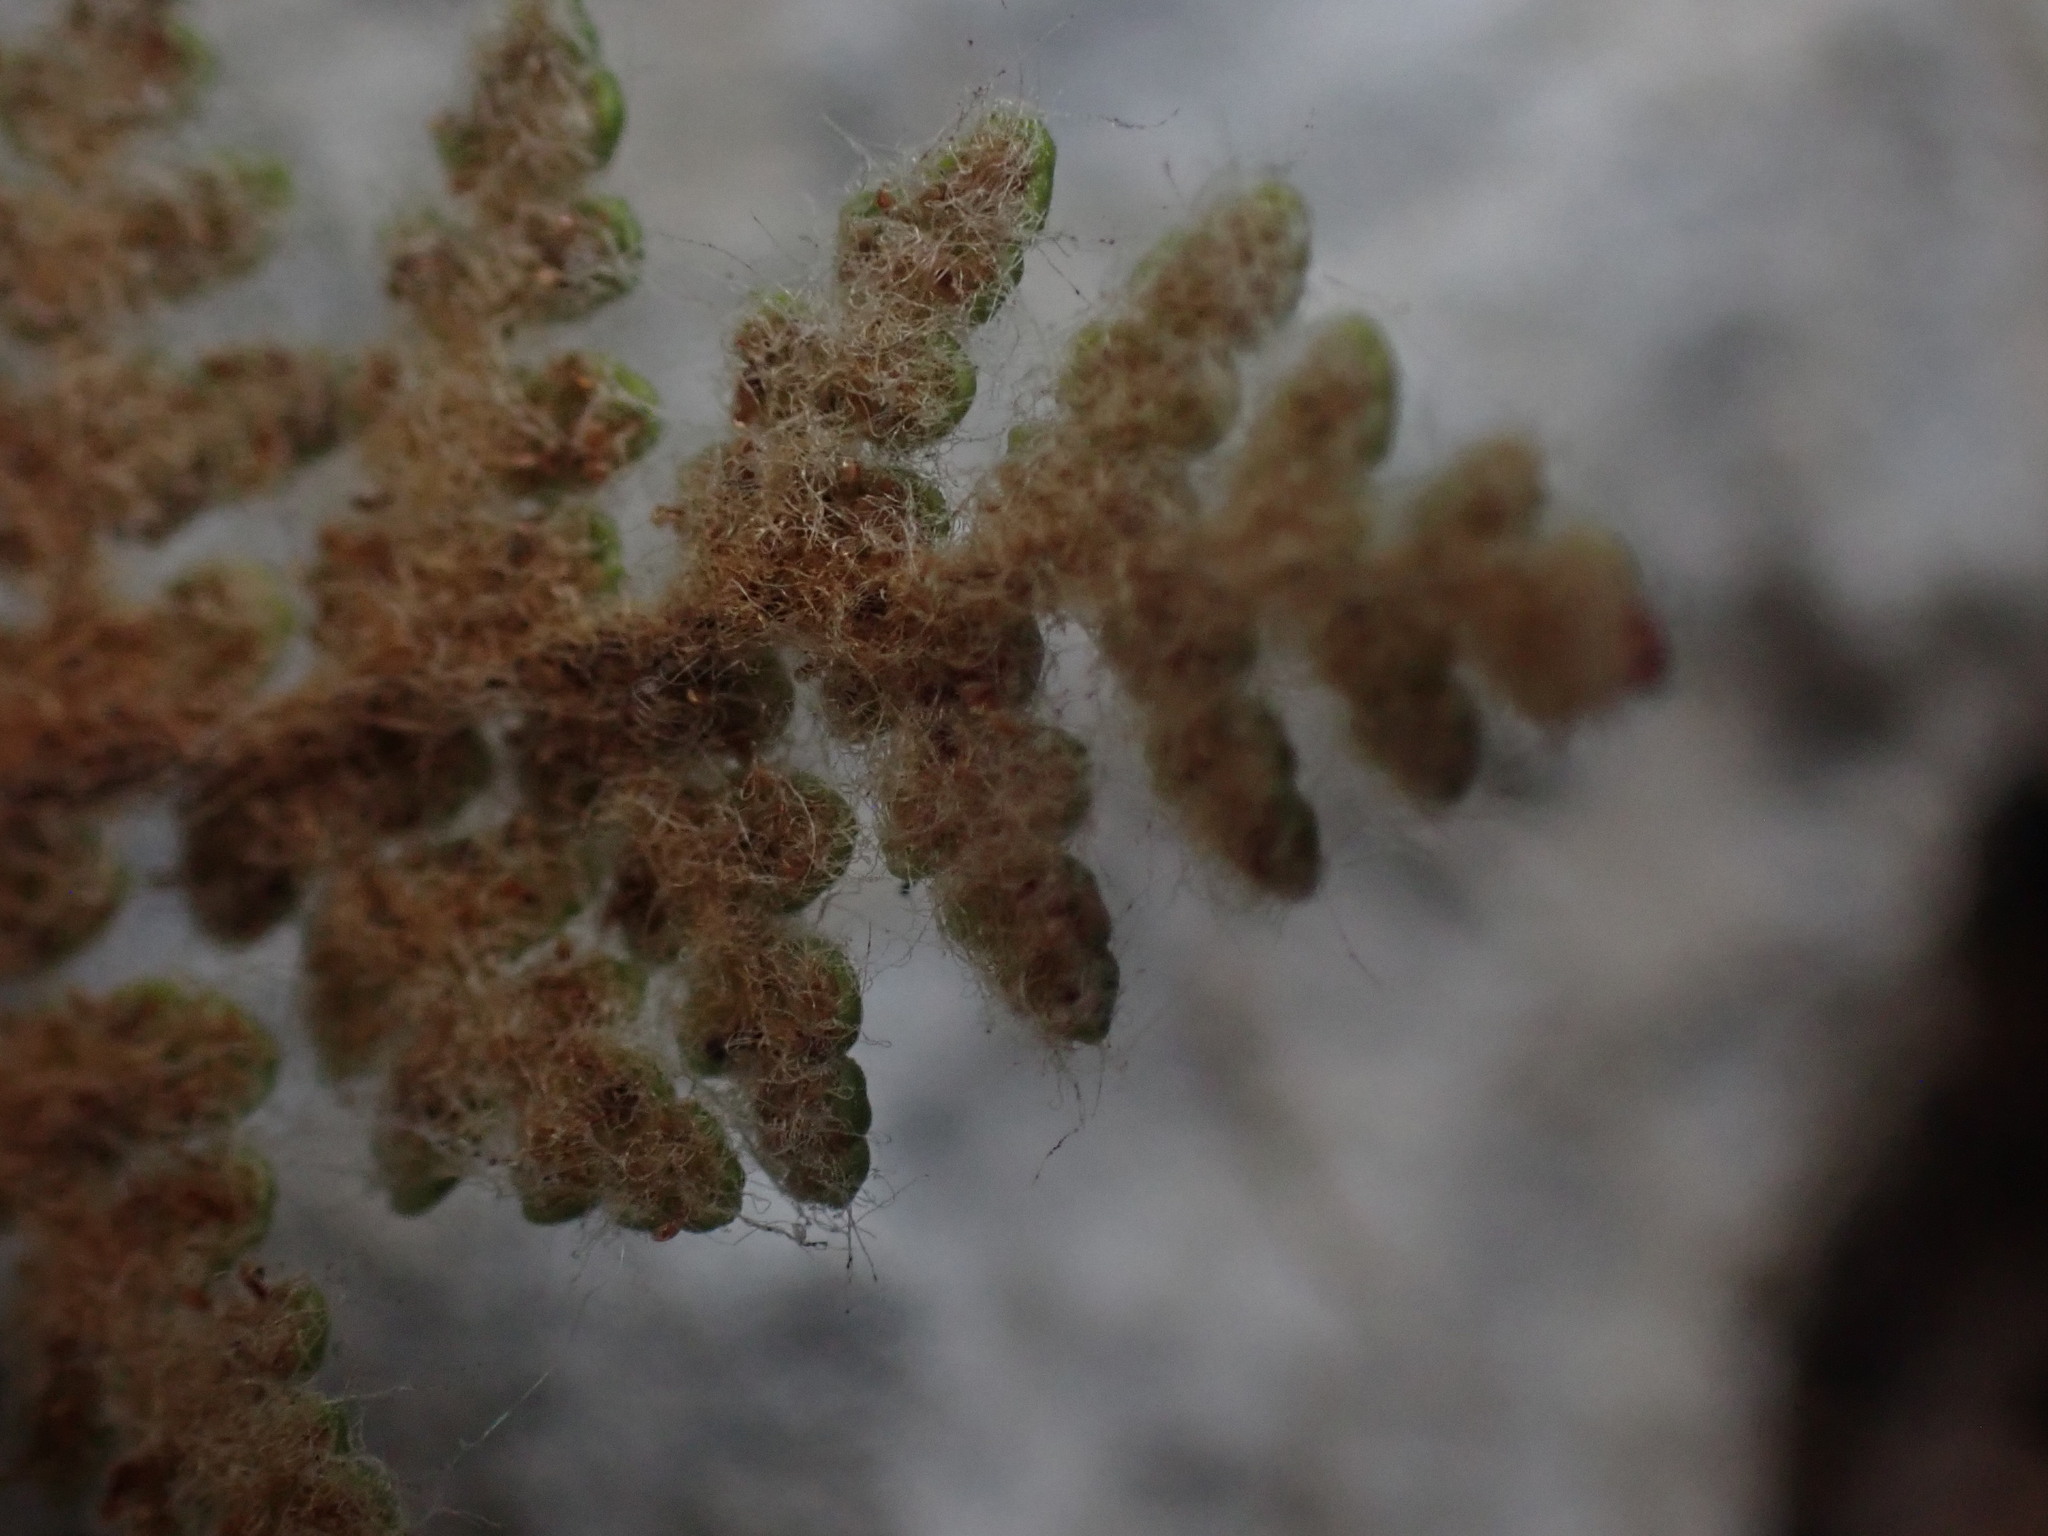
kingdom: Plantae
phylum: Tracheophyta
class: Polypodiopsida
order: Polypodiales
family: Pteridaceae
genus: Myriopteris
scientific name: Myriopteris gracilis
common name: Fee's lip fern
